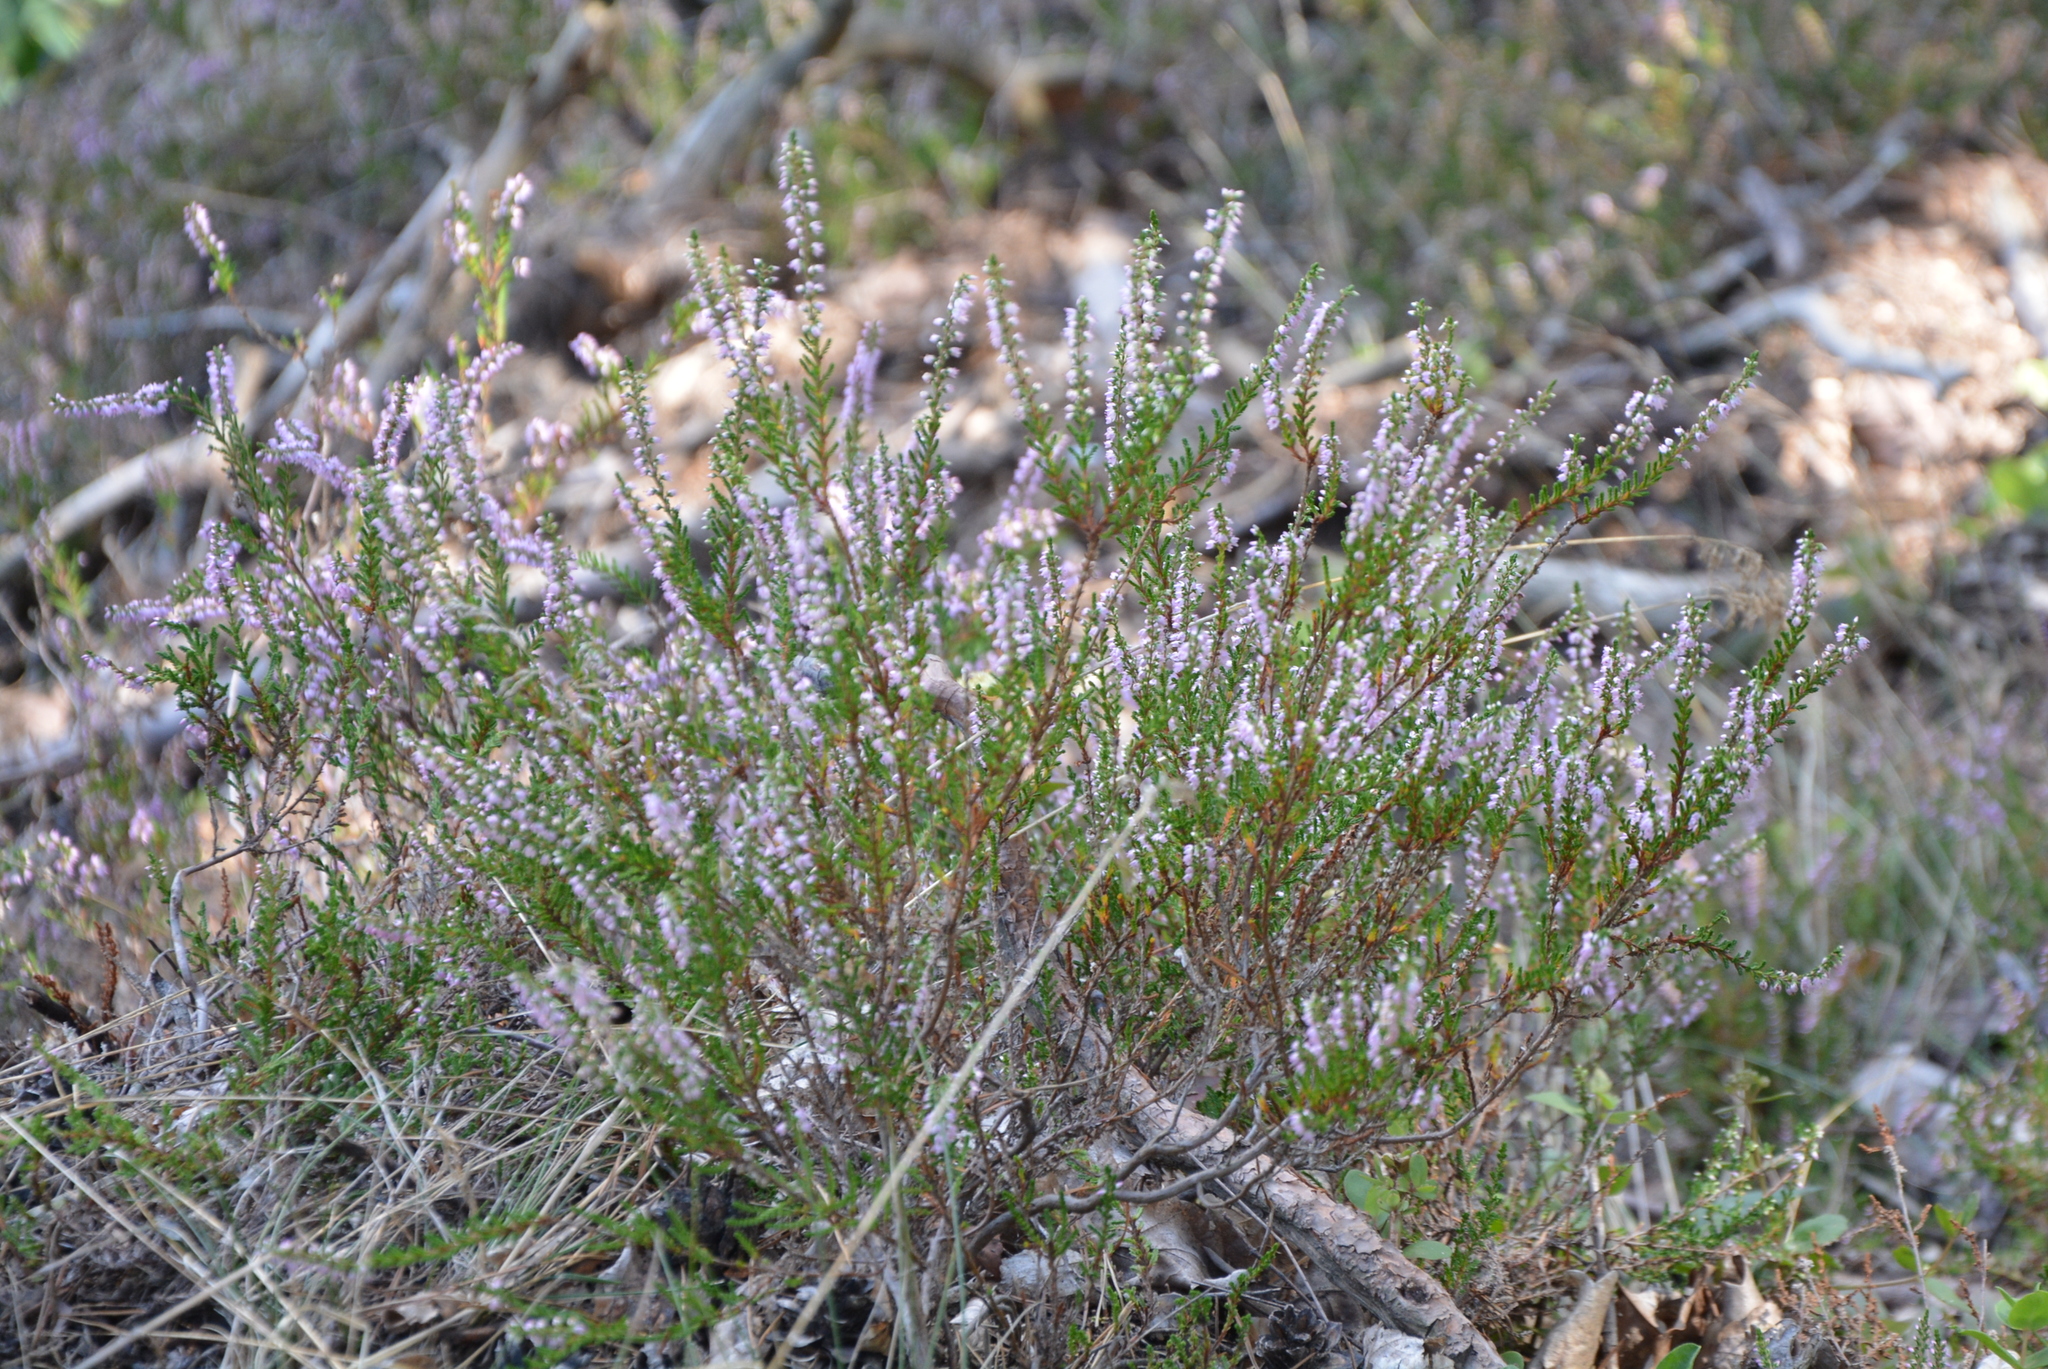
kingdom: Plantae
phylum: Tracheophyta
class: Magnoliopsida
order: Ericales
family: Ericaceae
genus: Calluna
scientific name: Calluna vulgaris
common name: Heather
